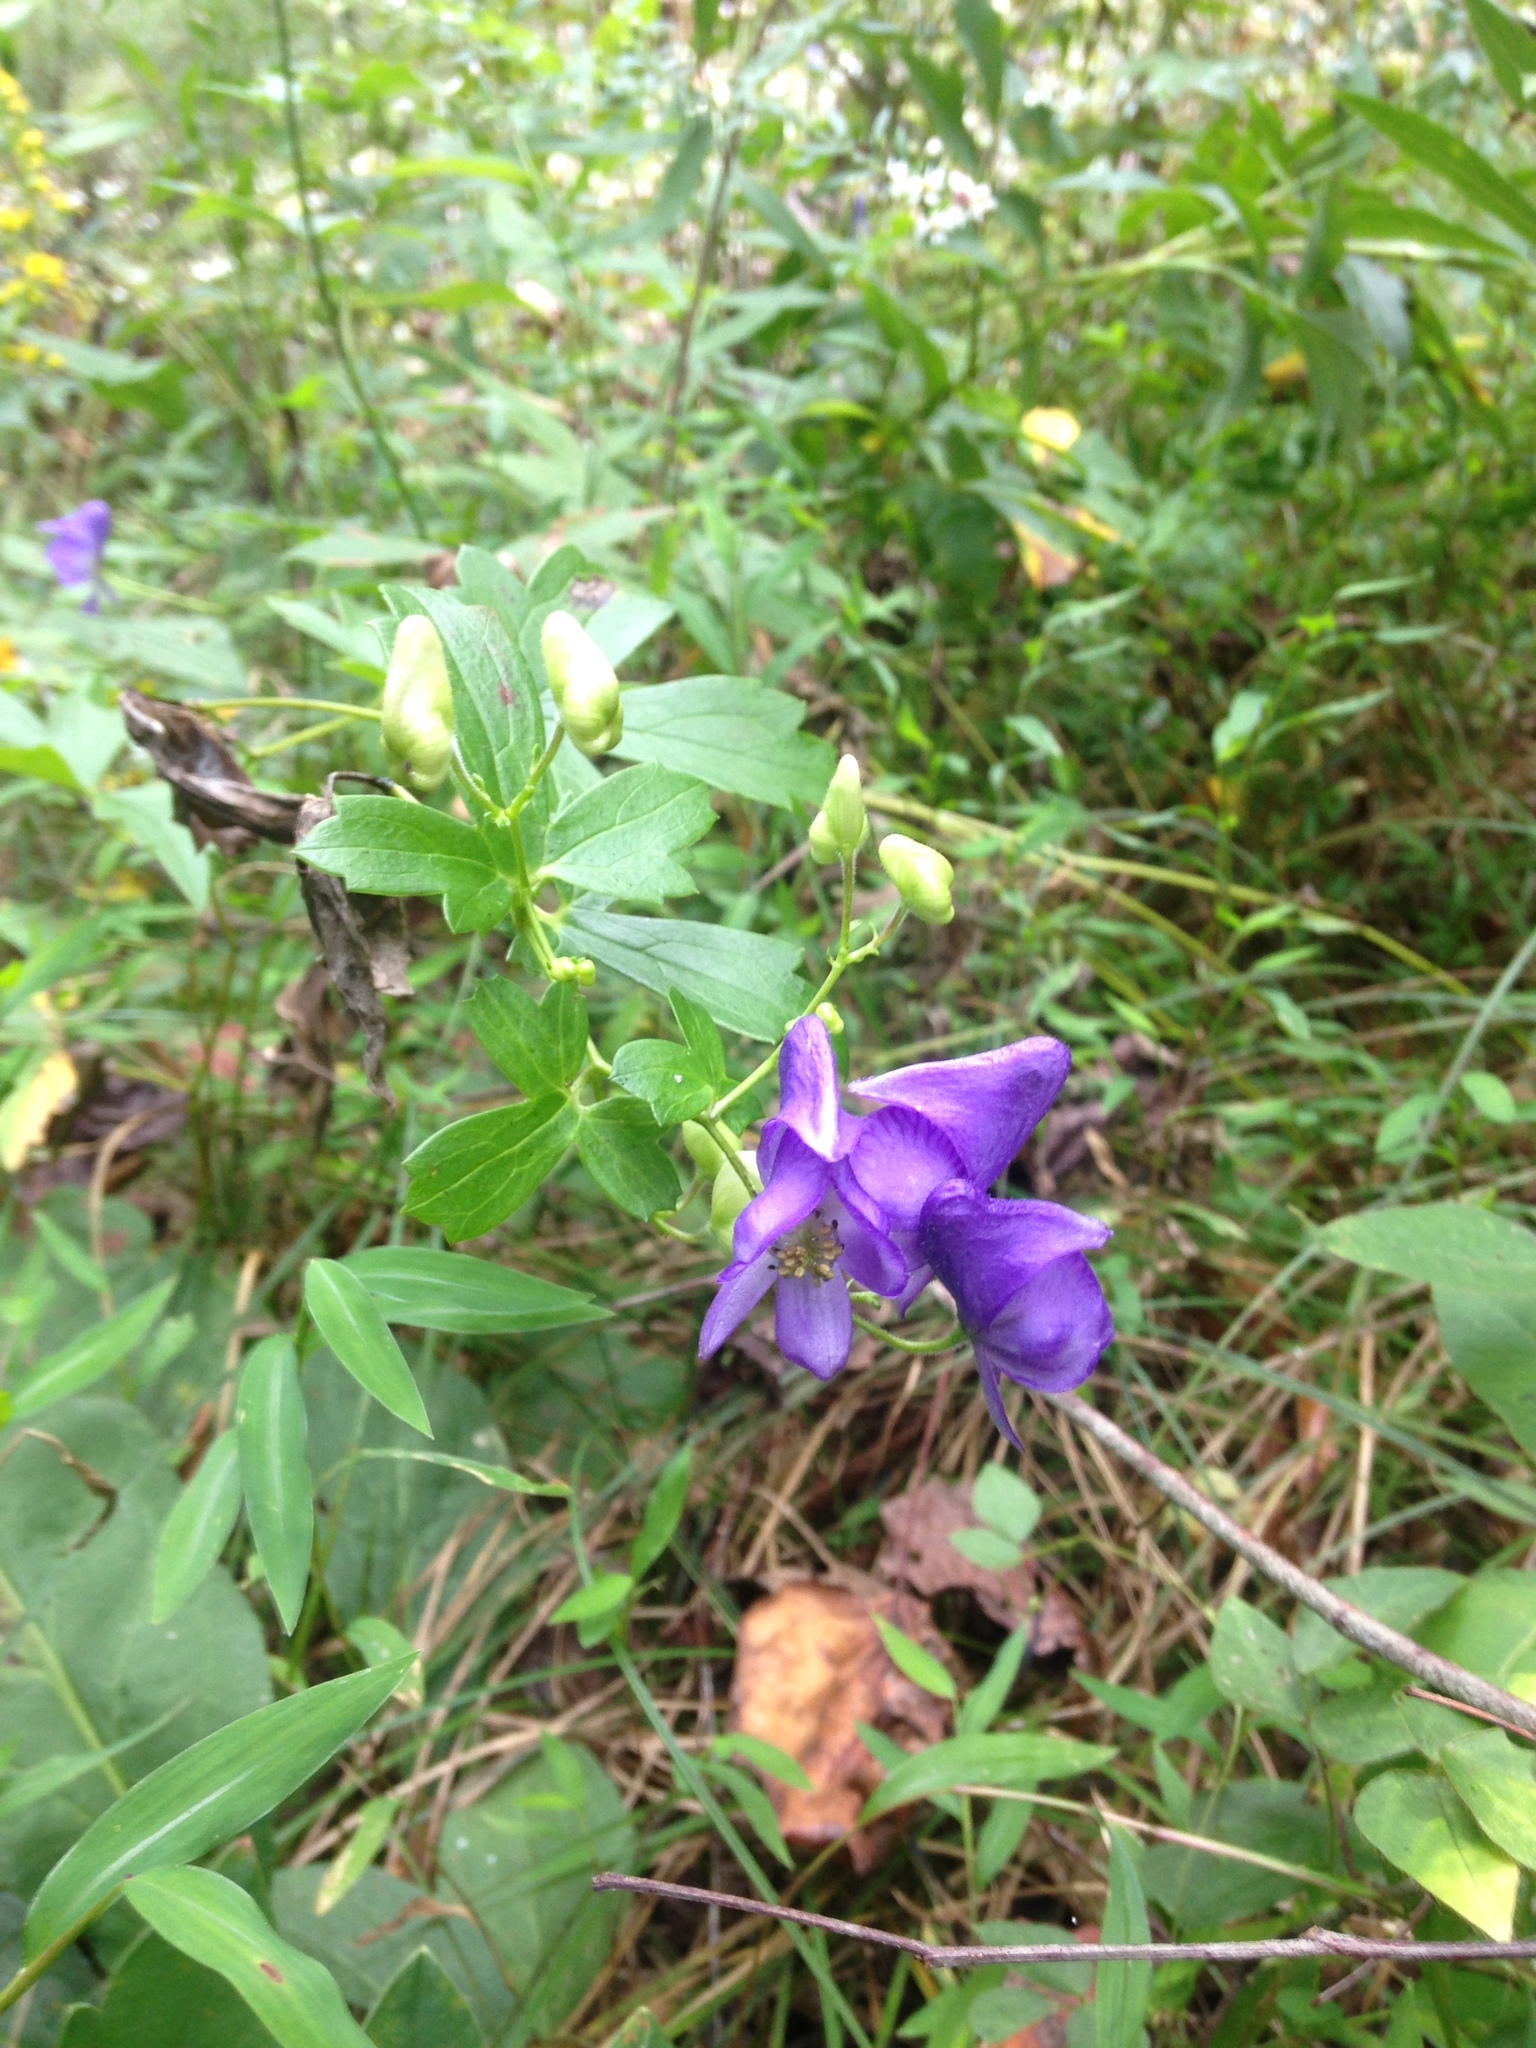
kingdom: Plantae
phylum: Tracheophyta
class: Magnoliopsida
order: Ranunculales
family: Ranunculaceae
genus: Aconitum
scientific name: Aconitum uncinatum
